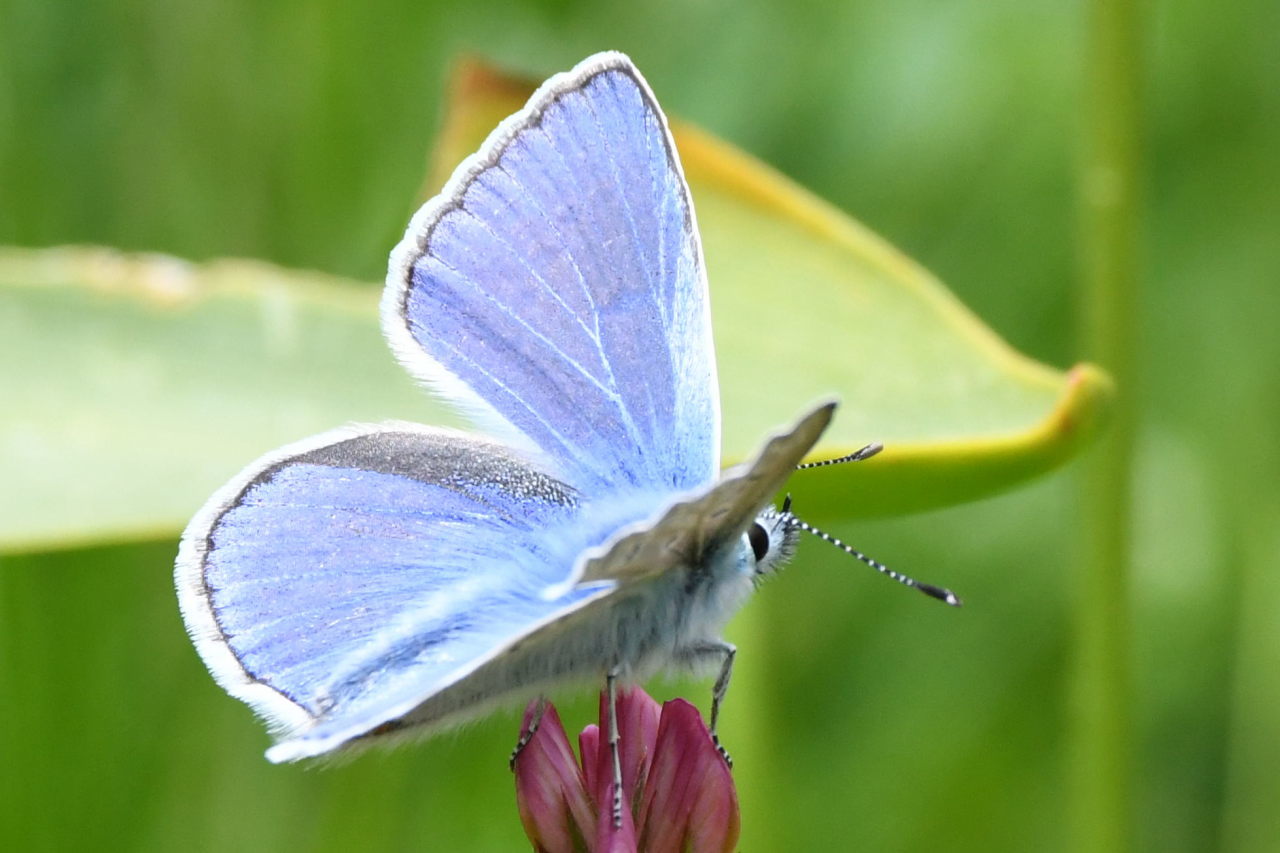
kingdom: Animalia
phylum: Arthropoda
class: Insecta
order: Lepidoptera
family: Lycaenidae
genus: Polyommatus
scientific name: Polyommatus icarus
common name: Common blue
